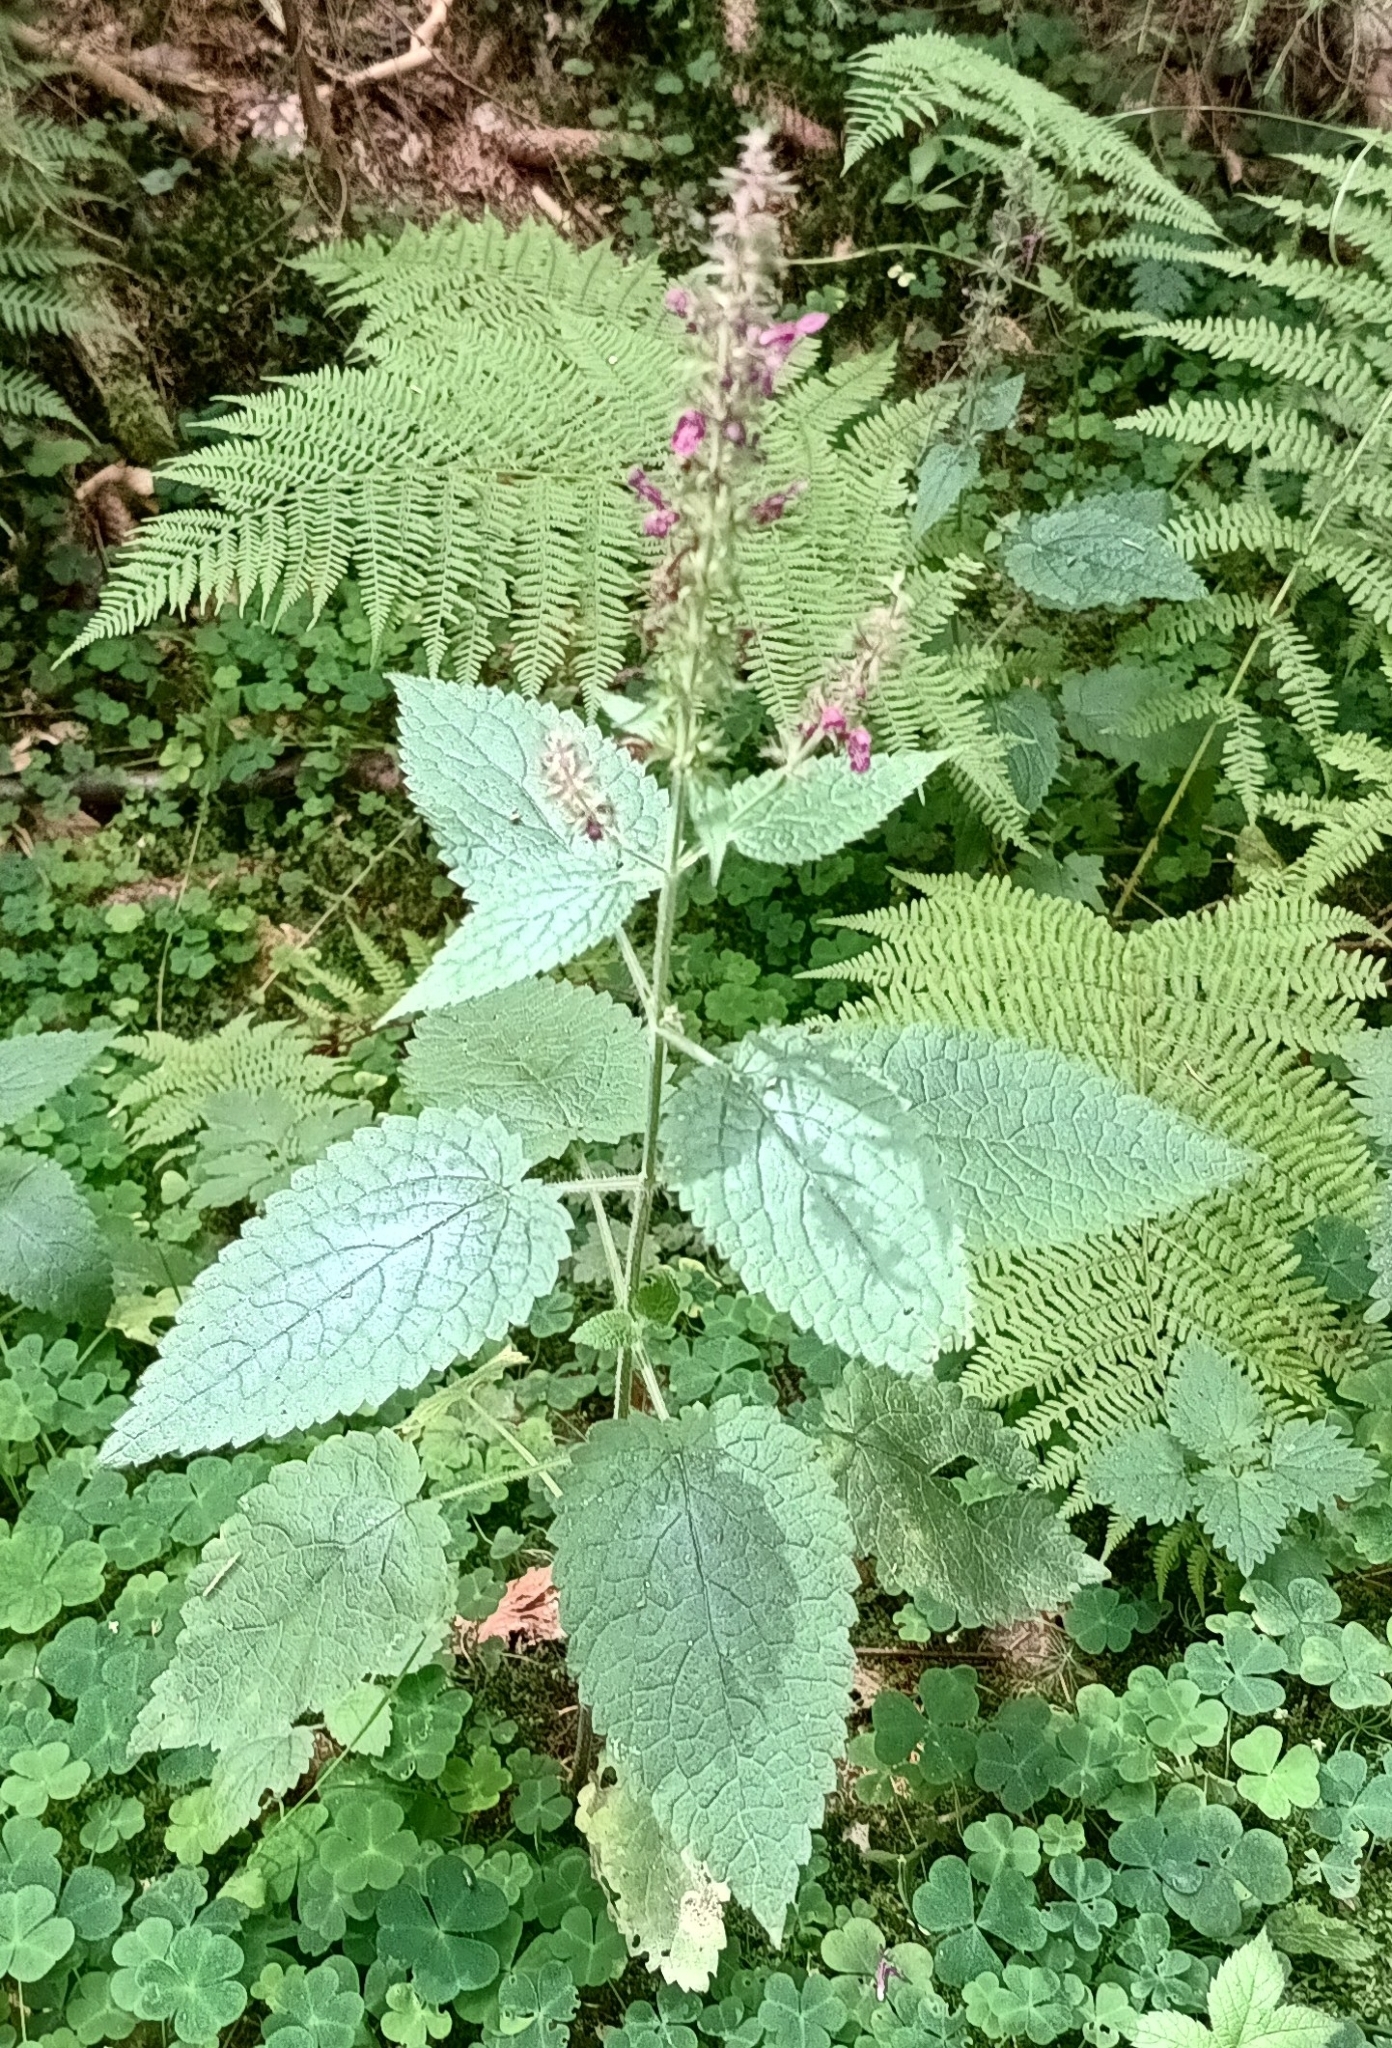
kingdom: Plantae
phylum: Tracheophyta
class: Magnoliopsida
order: Lamiales
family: Lamiaceae
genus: Stachys
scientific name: Stachys sylvatica
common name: Hedge woundwort
